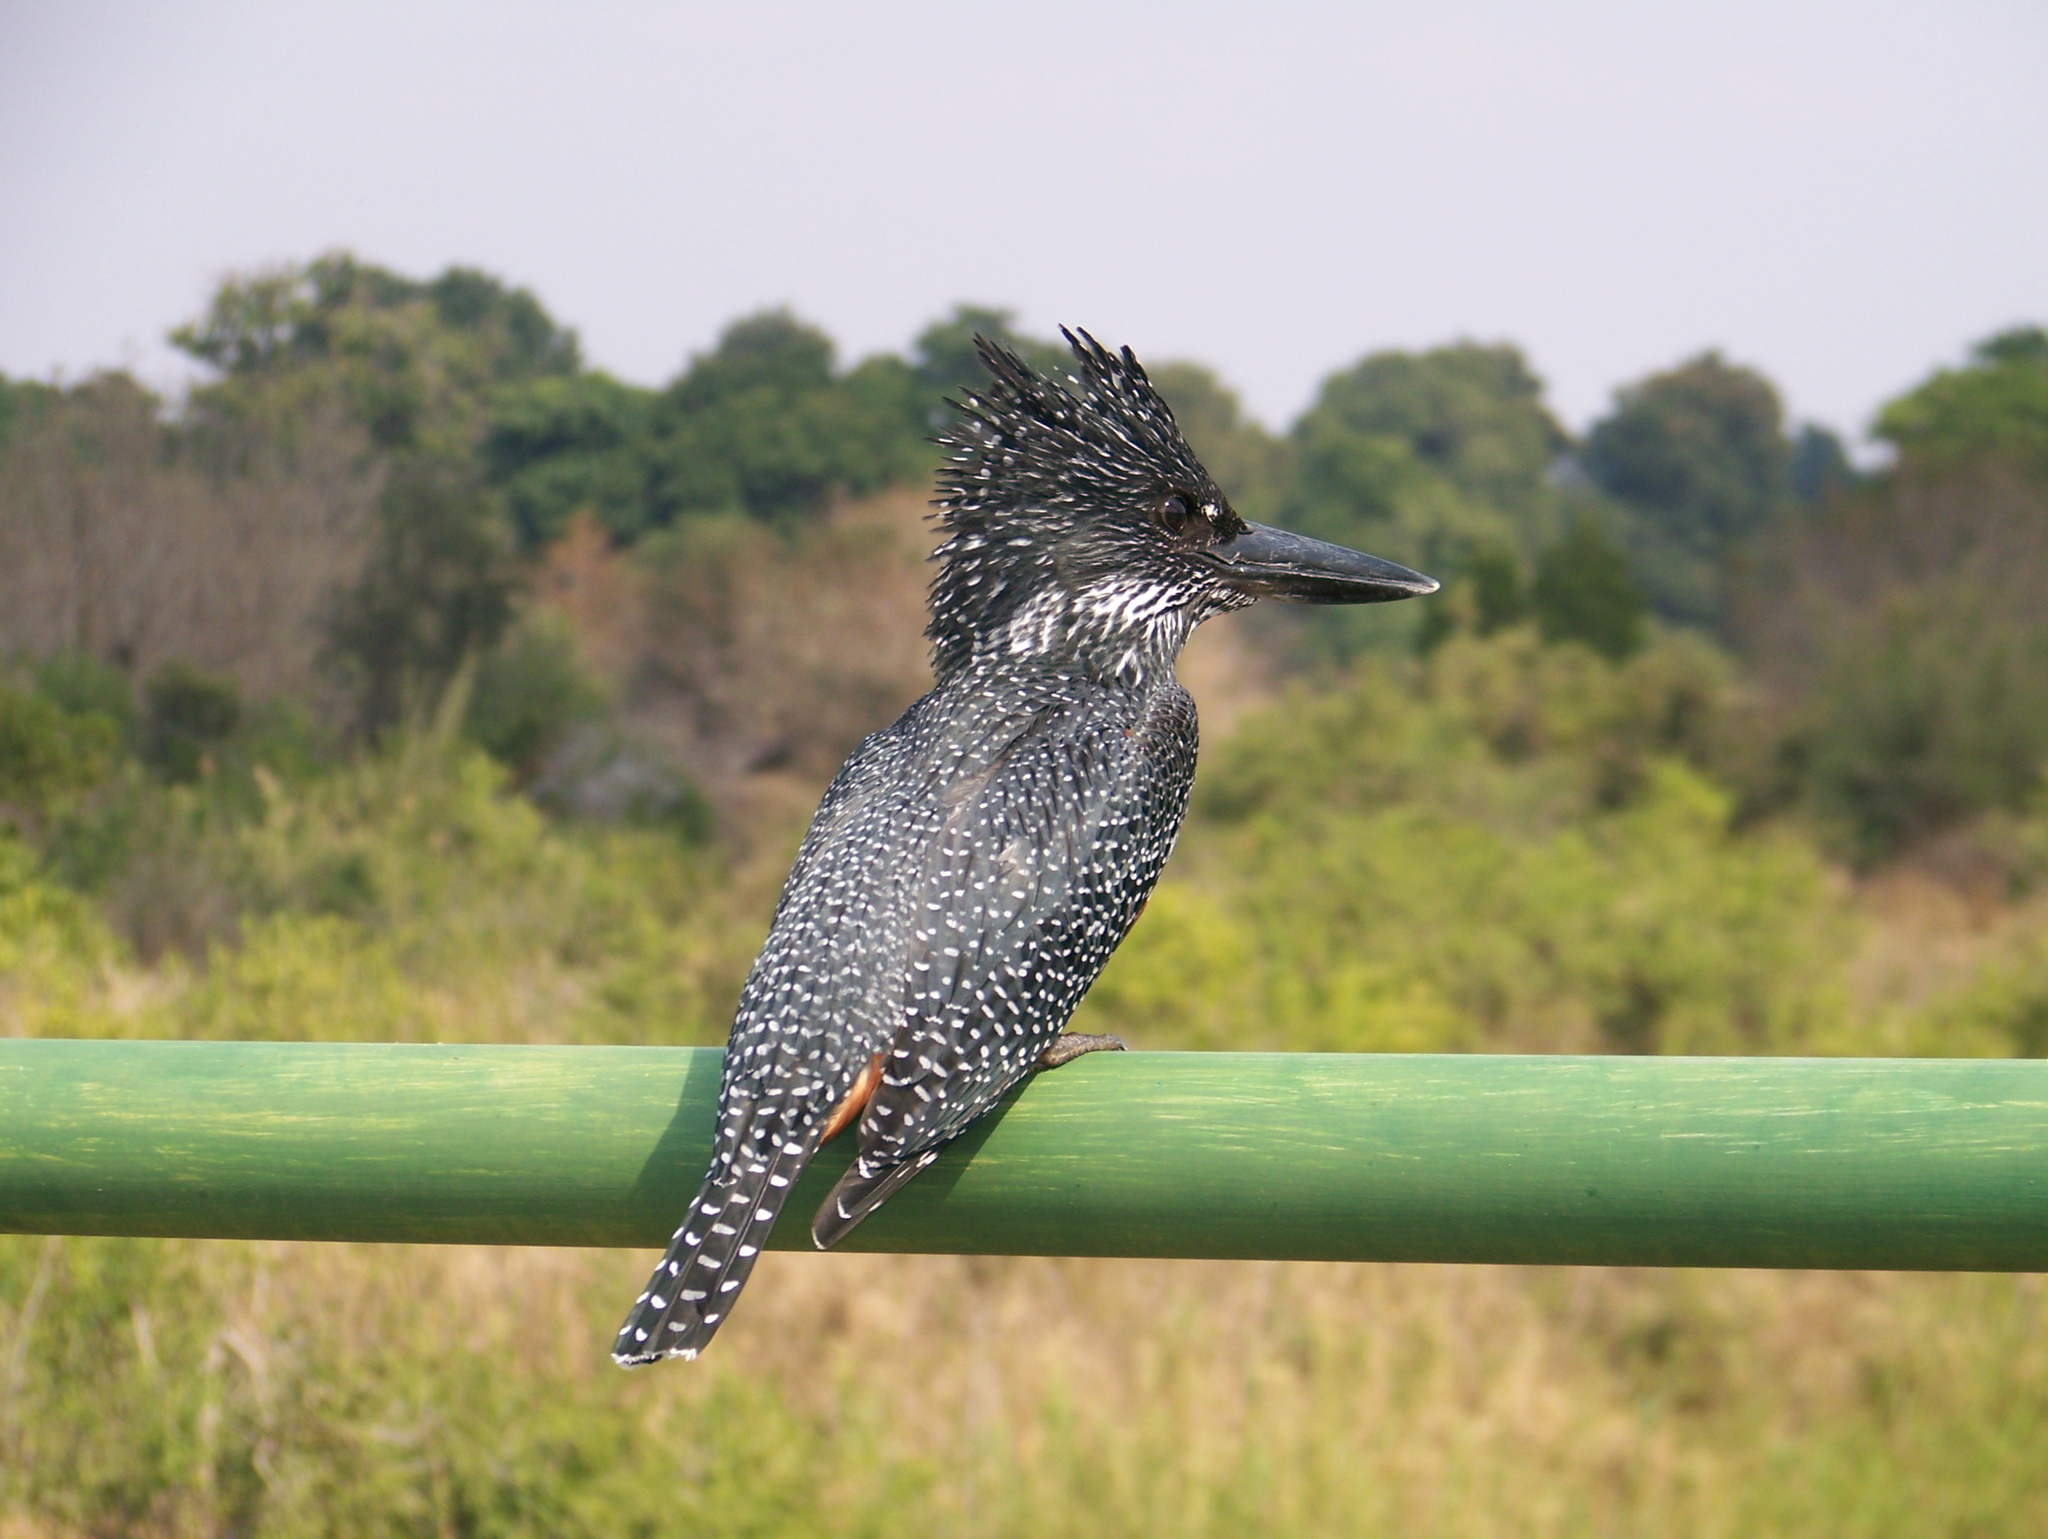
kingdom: Animalia
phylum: Chordata
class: Aves
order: Coraciiformes
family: Alcedinidae
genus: Megaceryle
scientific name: Megaceryle maxima
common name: Giant kingfisher
